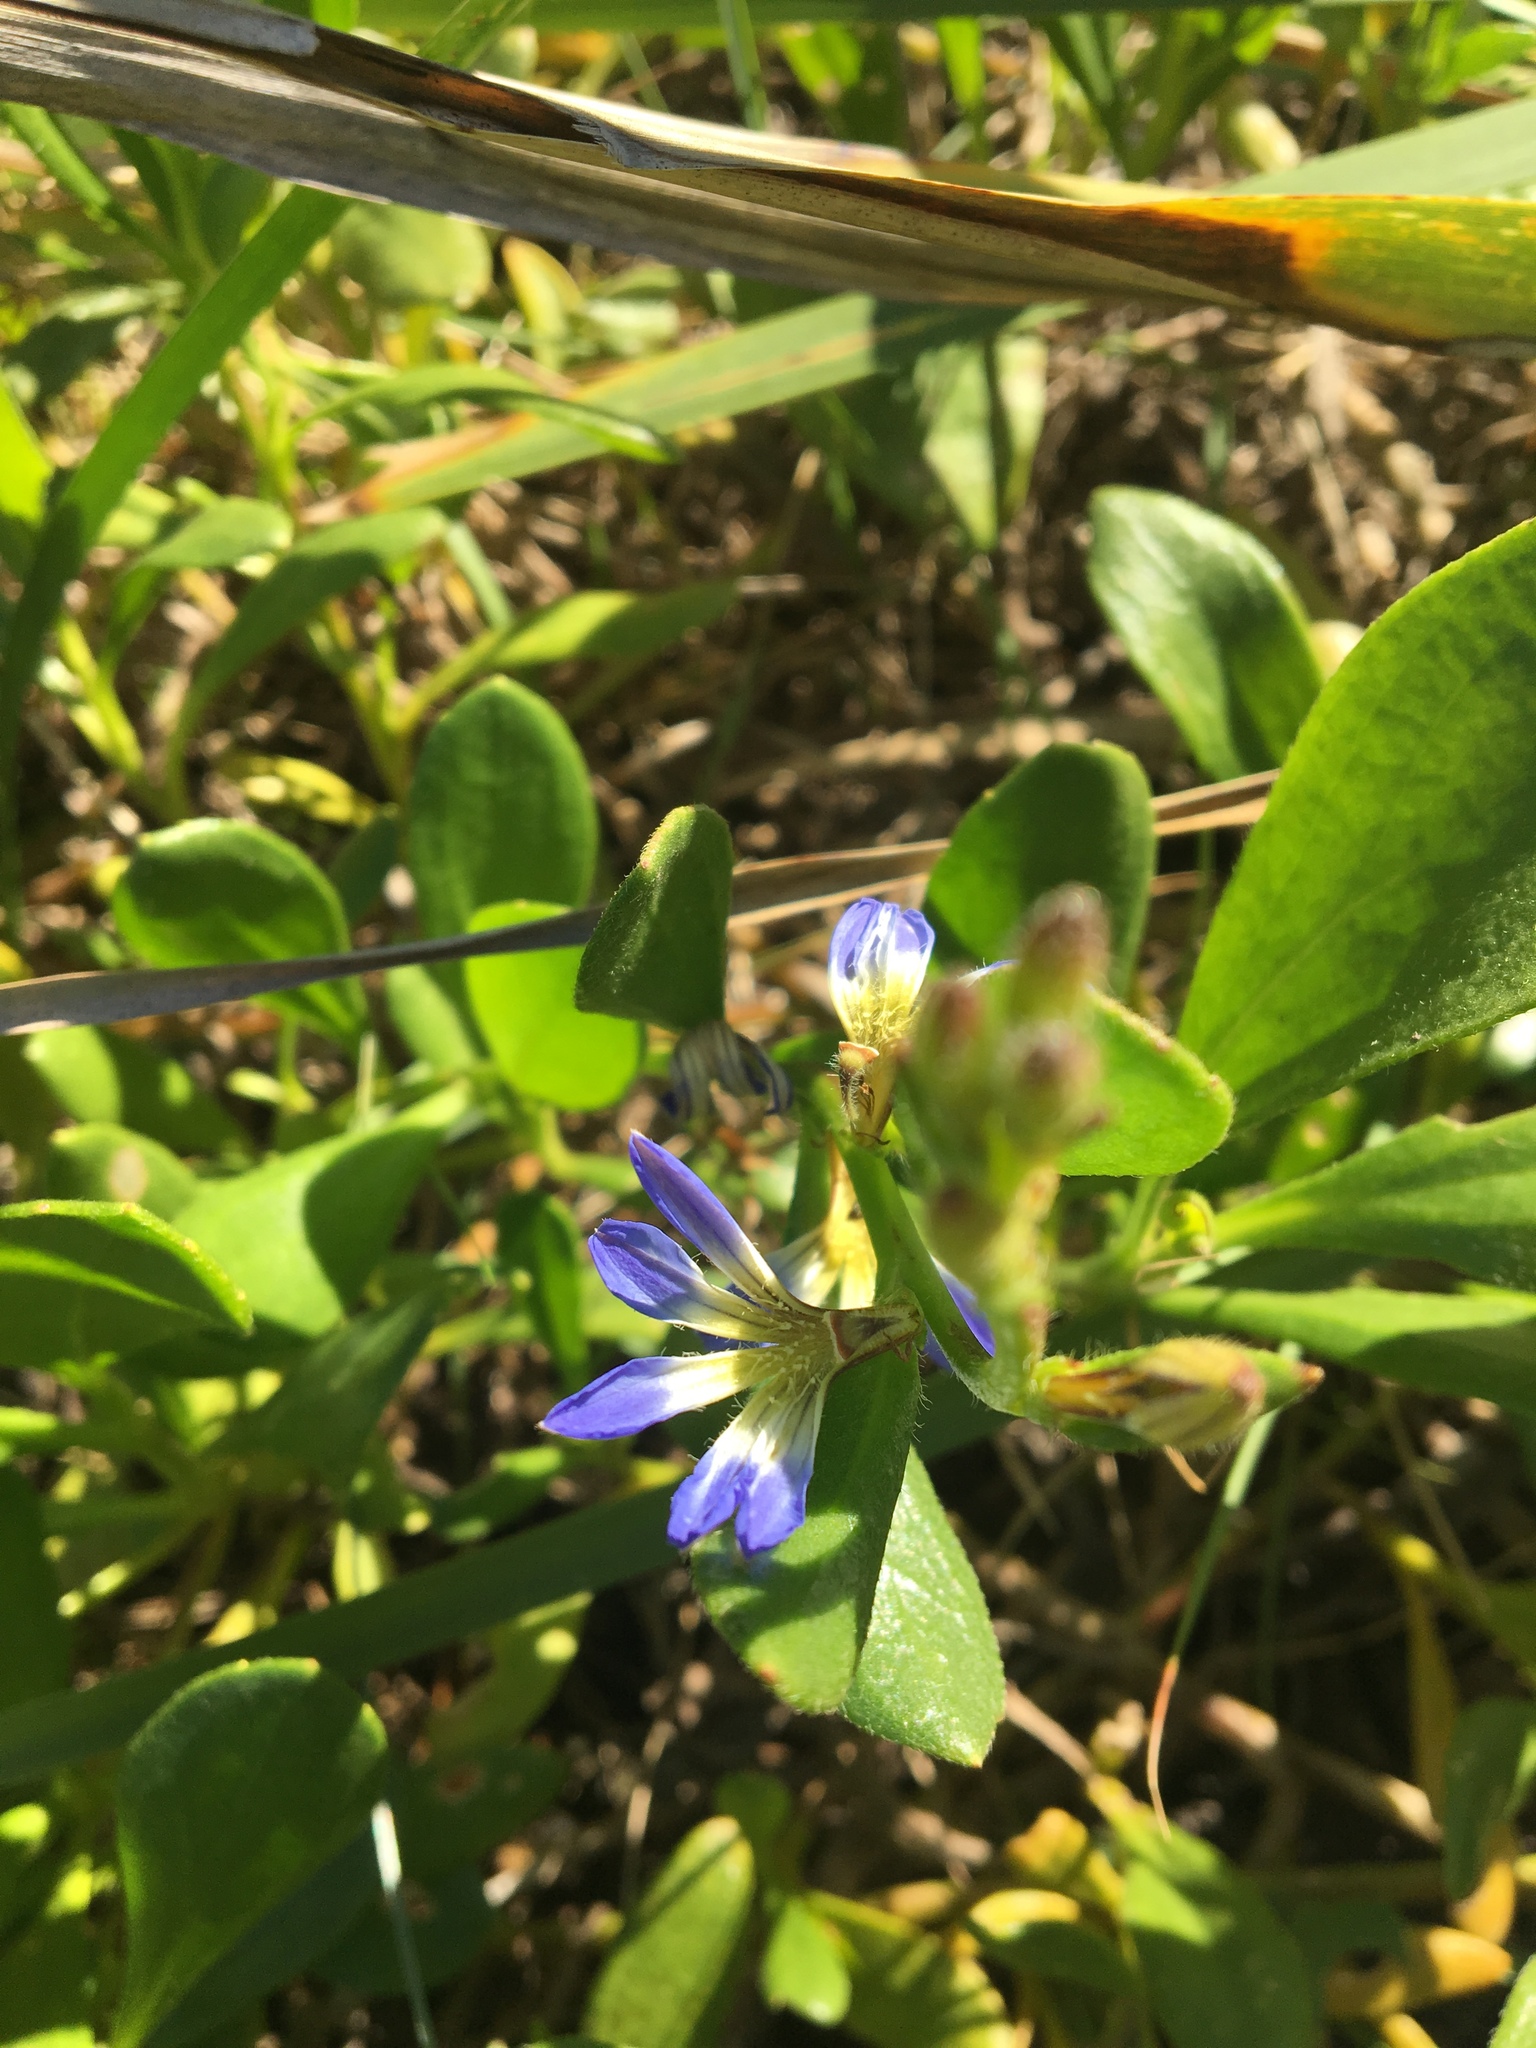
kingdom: Plantae
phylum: Tracheophyta
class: Magnoliopsida
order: Asterales
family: Goodeniaceae
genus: Scaevola
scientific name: Scaevola calendulacea
